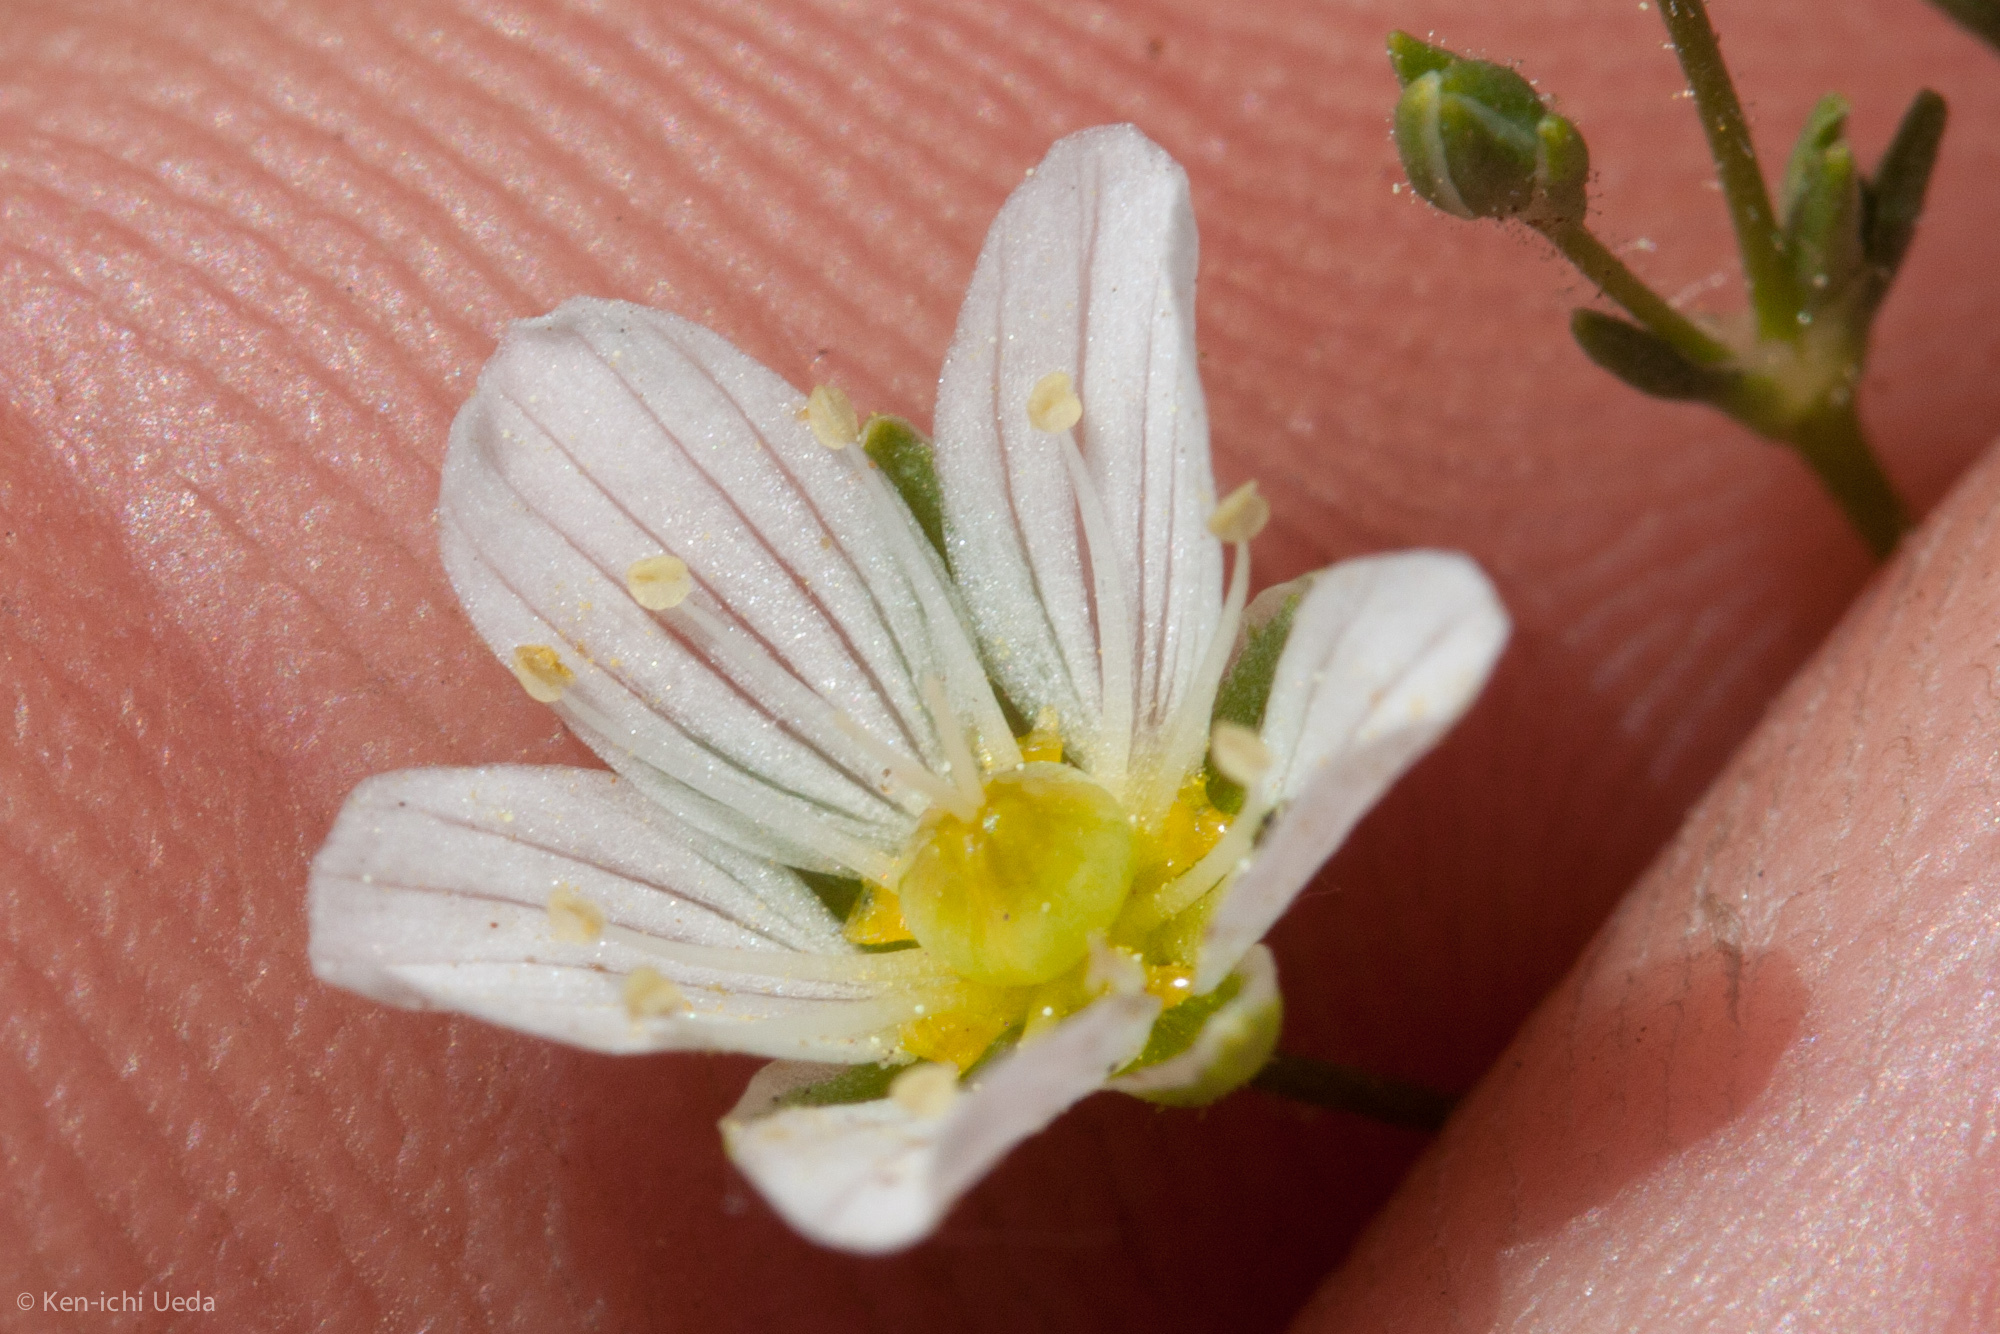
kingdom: Plantae
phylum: Tracheophyta
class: Magnoliopsida
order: Caryophyllales
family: Caryophyllaceae
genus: Sabulina
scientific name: Sabulina douglasii
